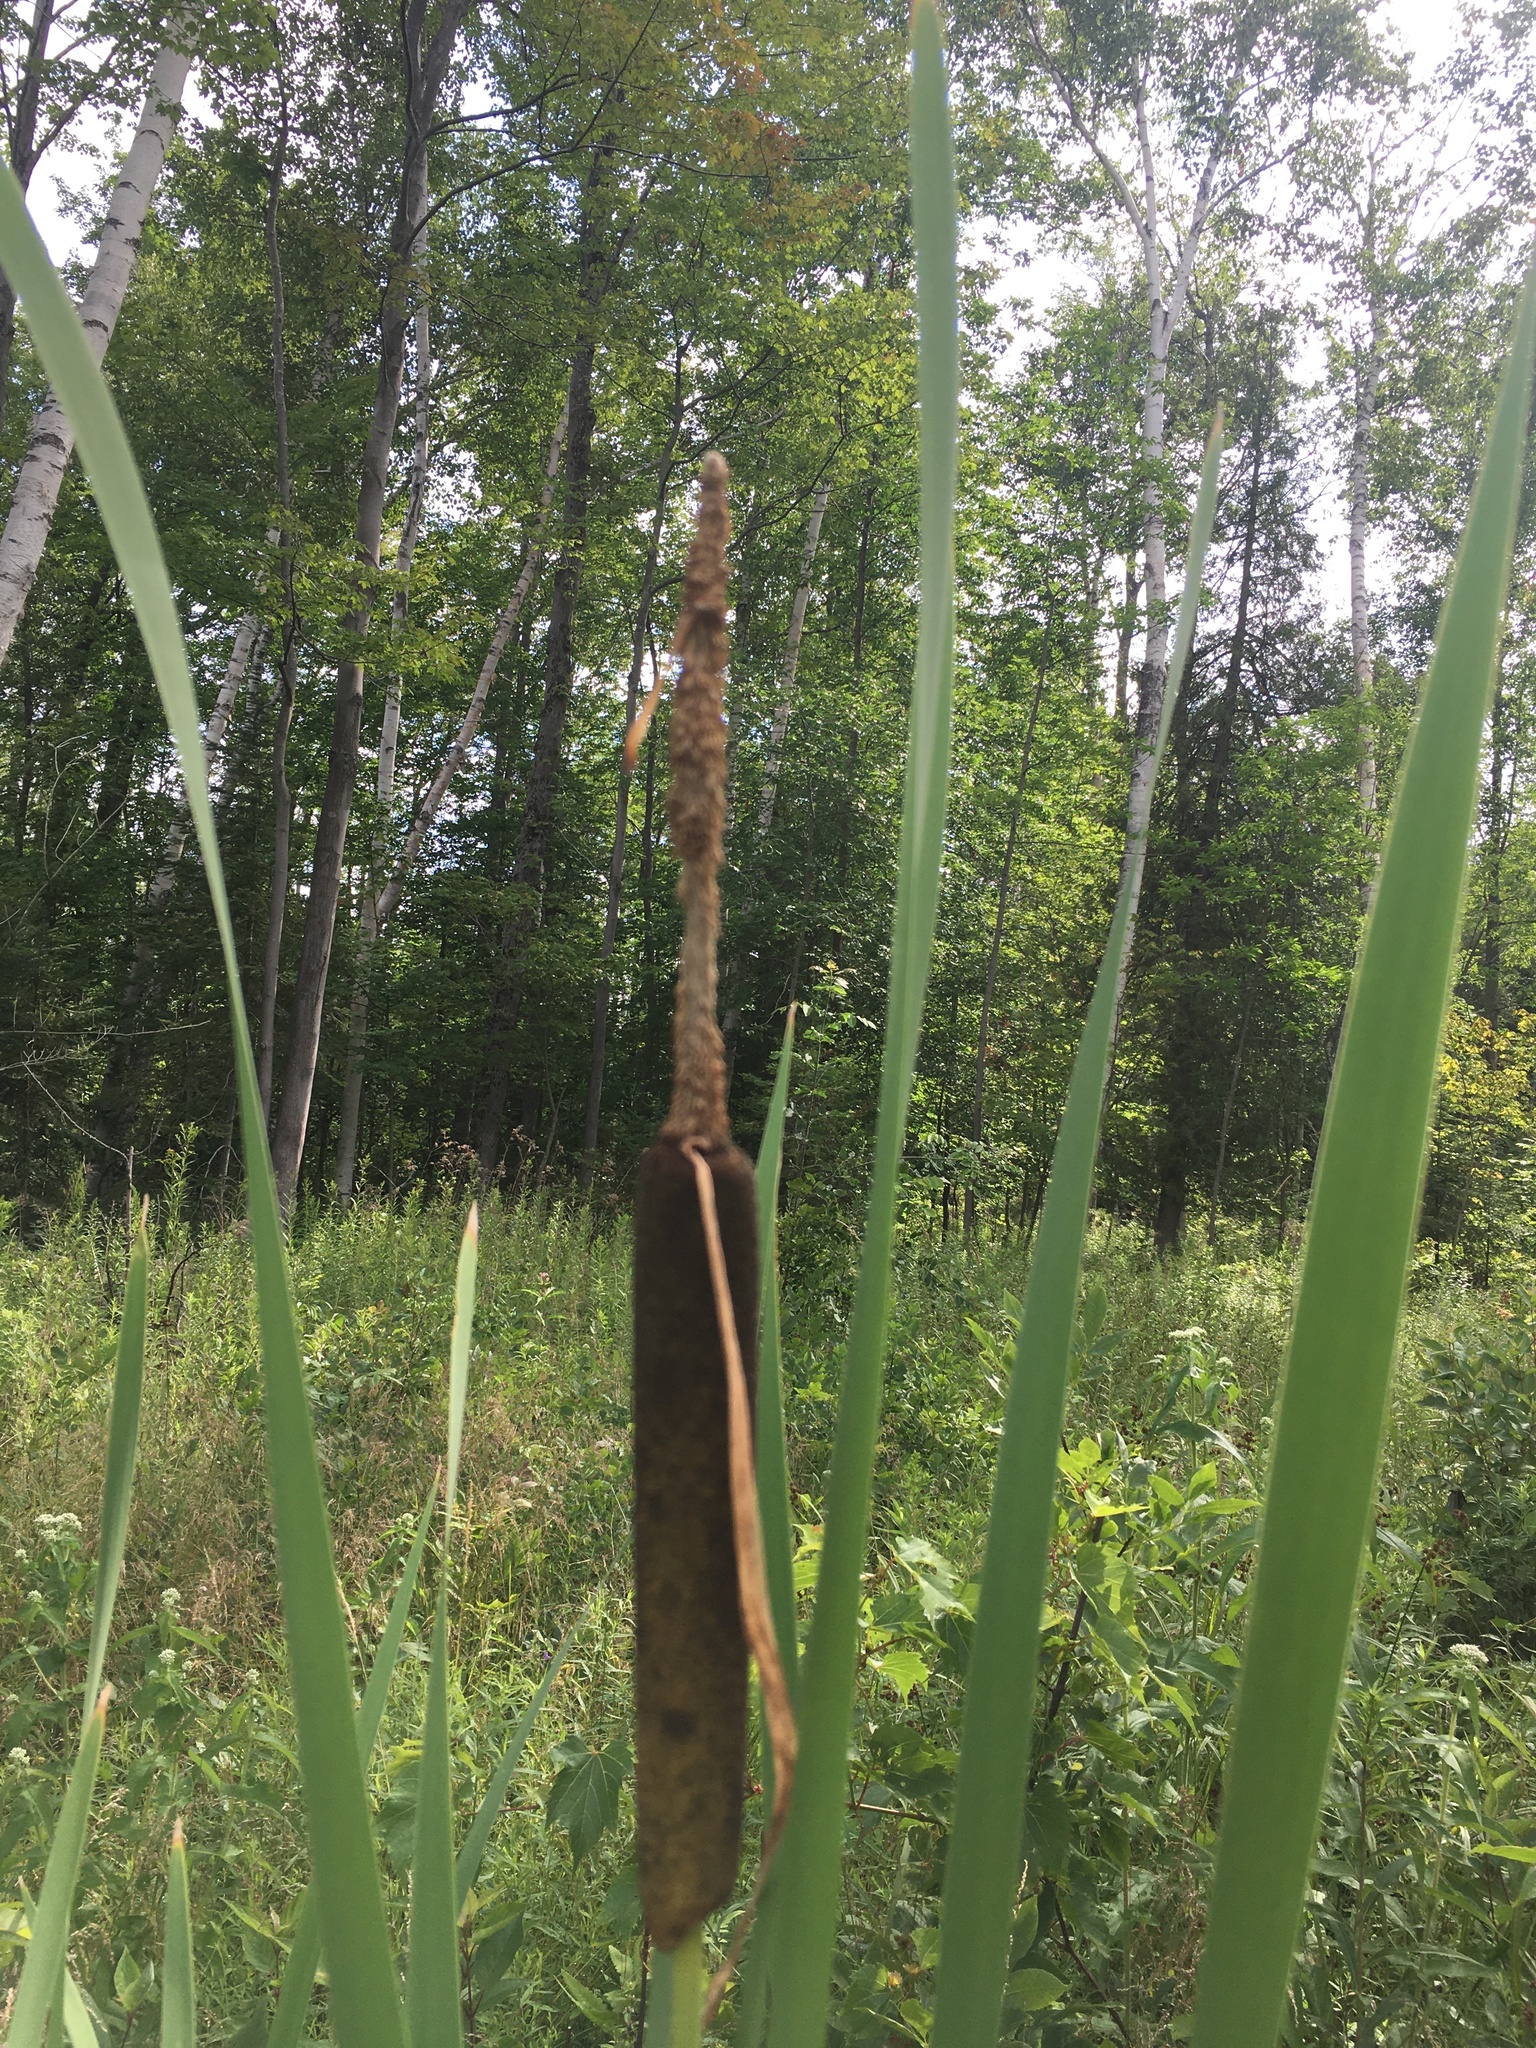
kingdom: Plantae
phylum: Tracheophyta
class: Liliopsida
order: Poales
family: Typhaceae
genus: Typha
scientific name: Typha latifolia
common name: Broadleaf cattail
